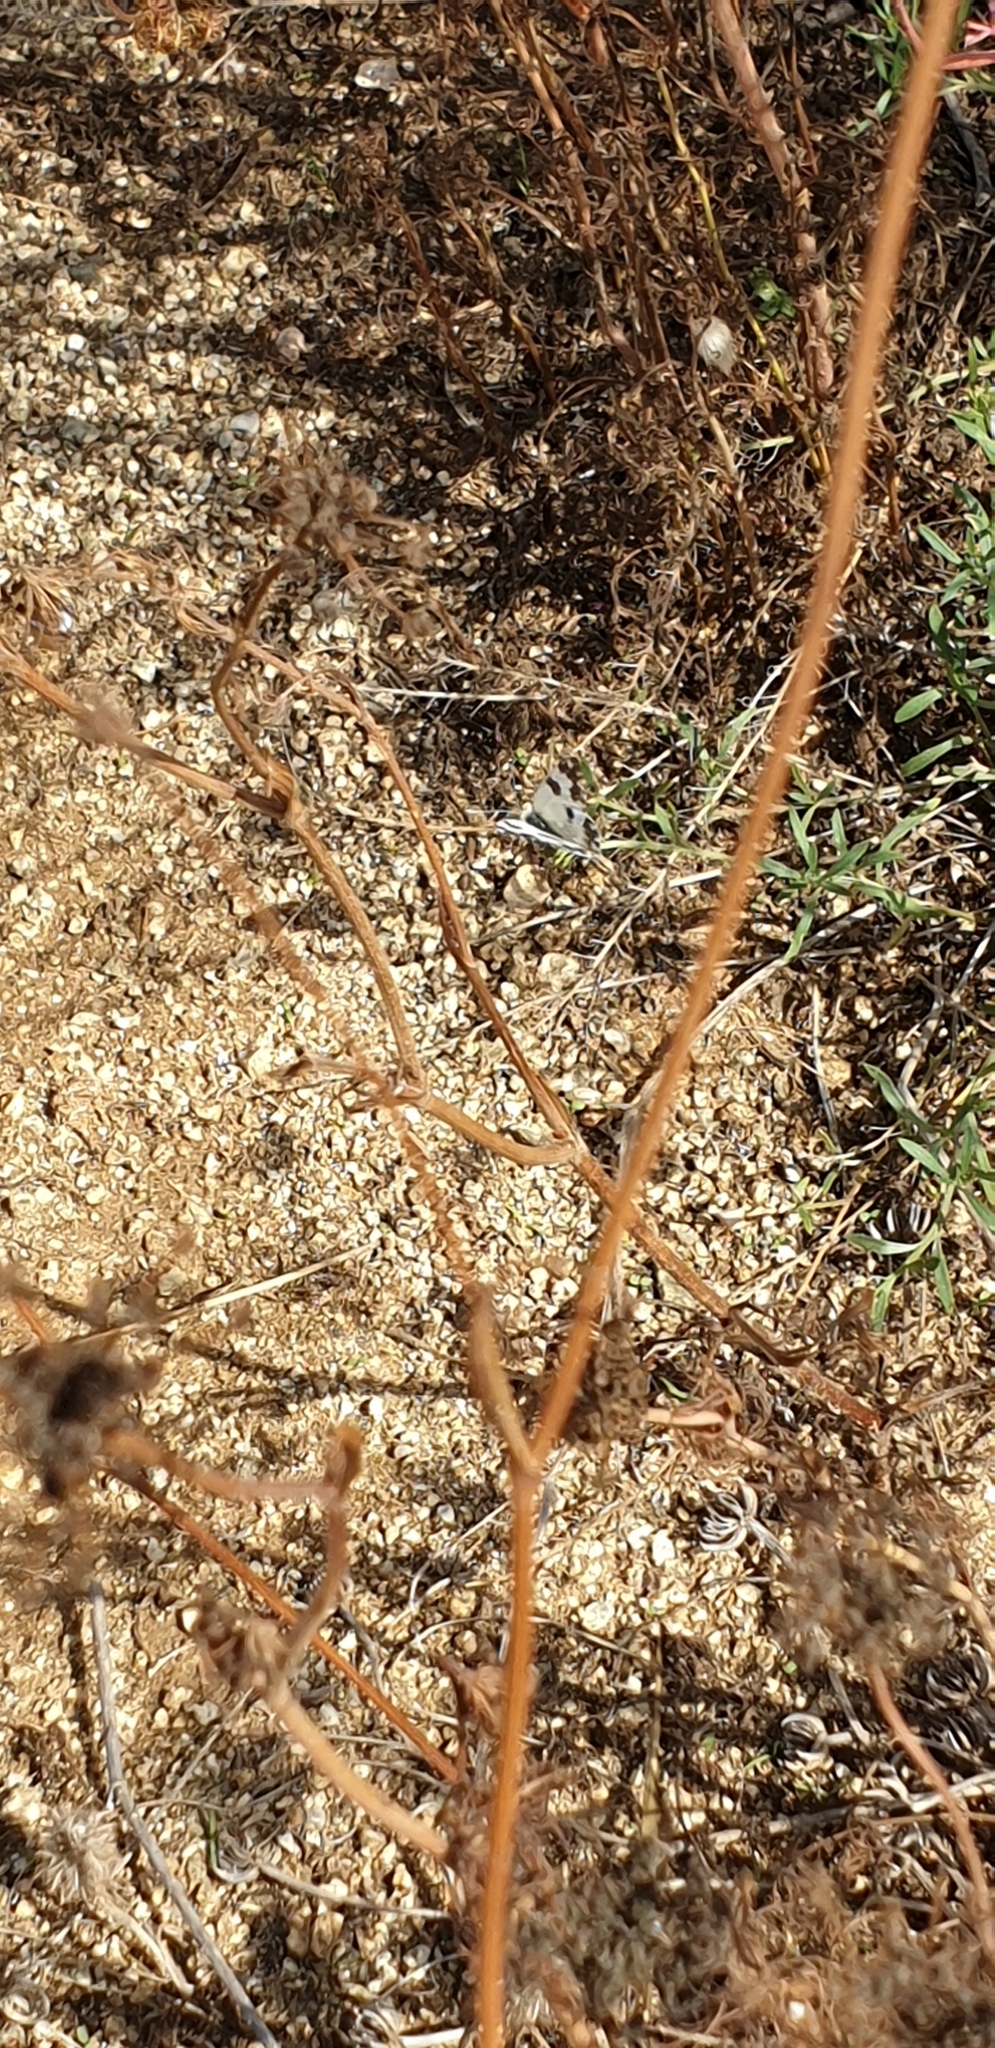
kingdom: Animalia
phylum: Arthropoda
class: Insecta
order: Lepidoptera
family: Pieridae
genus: Pontia
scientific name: Pontia daplidice
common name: Bath white
